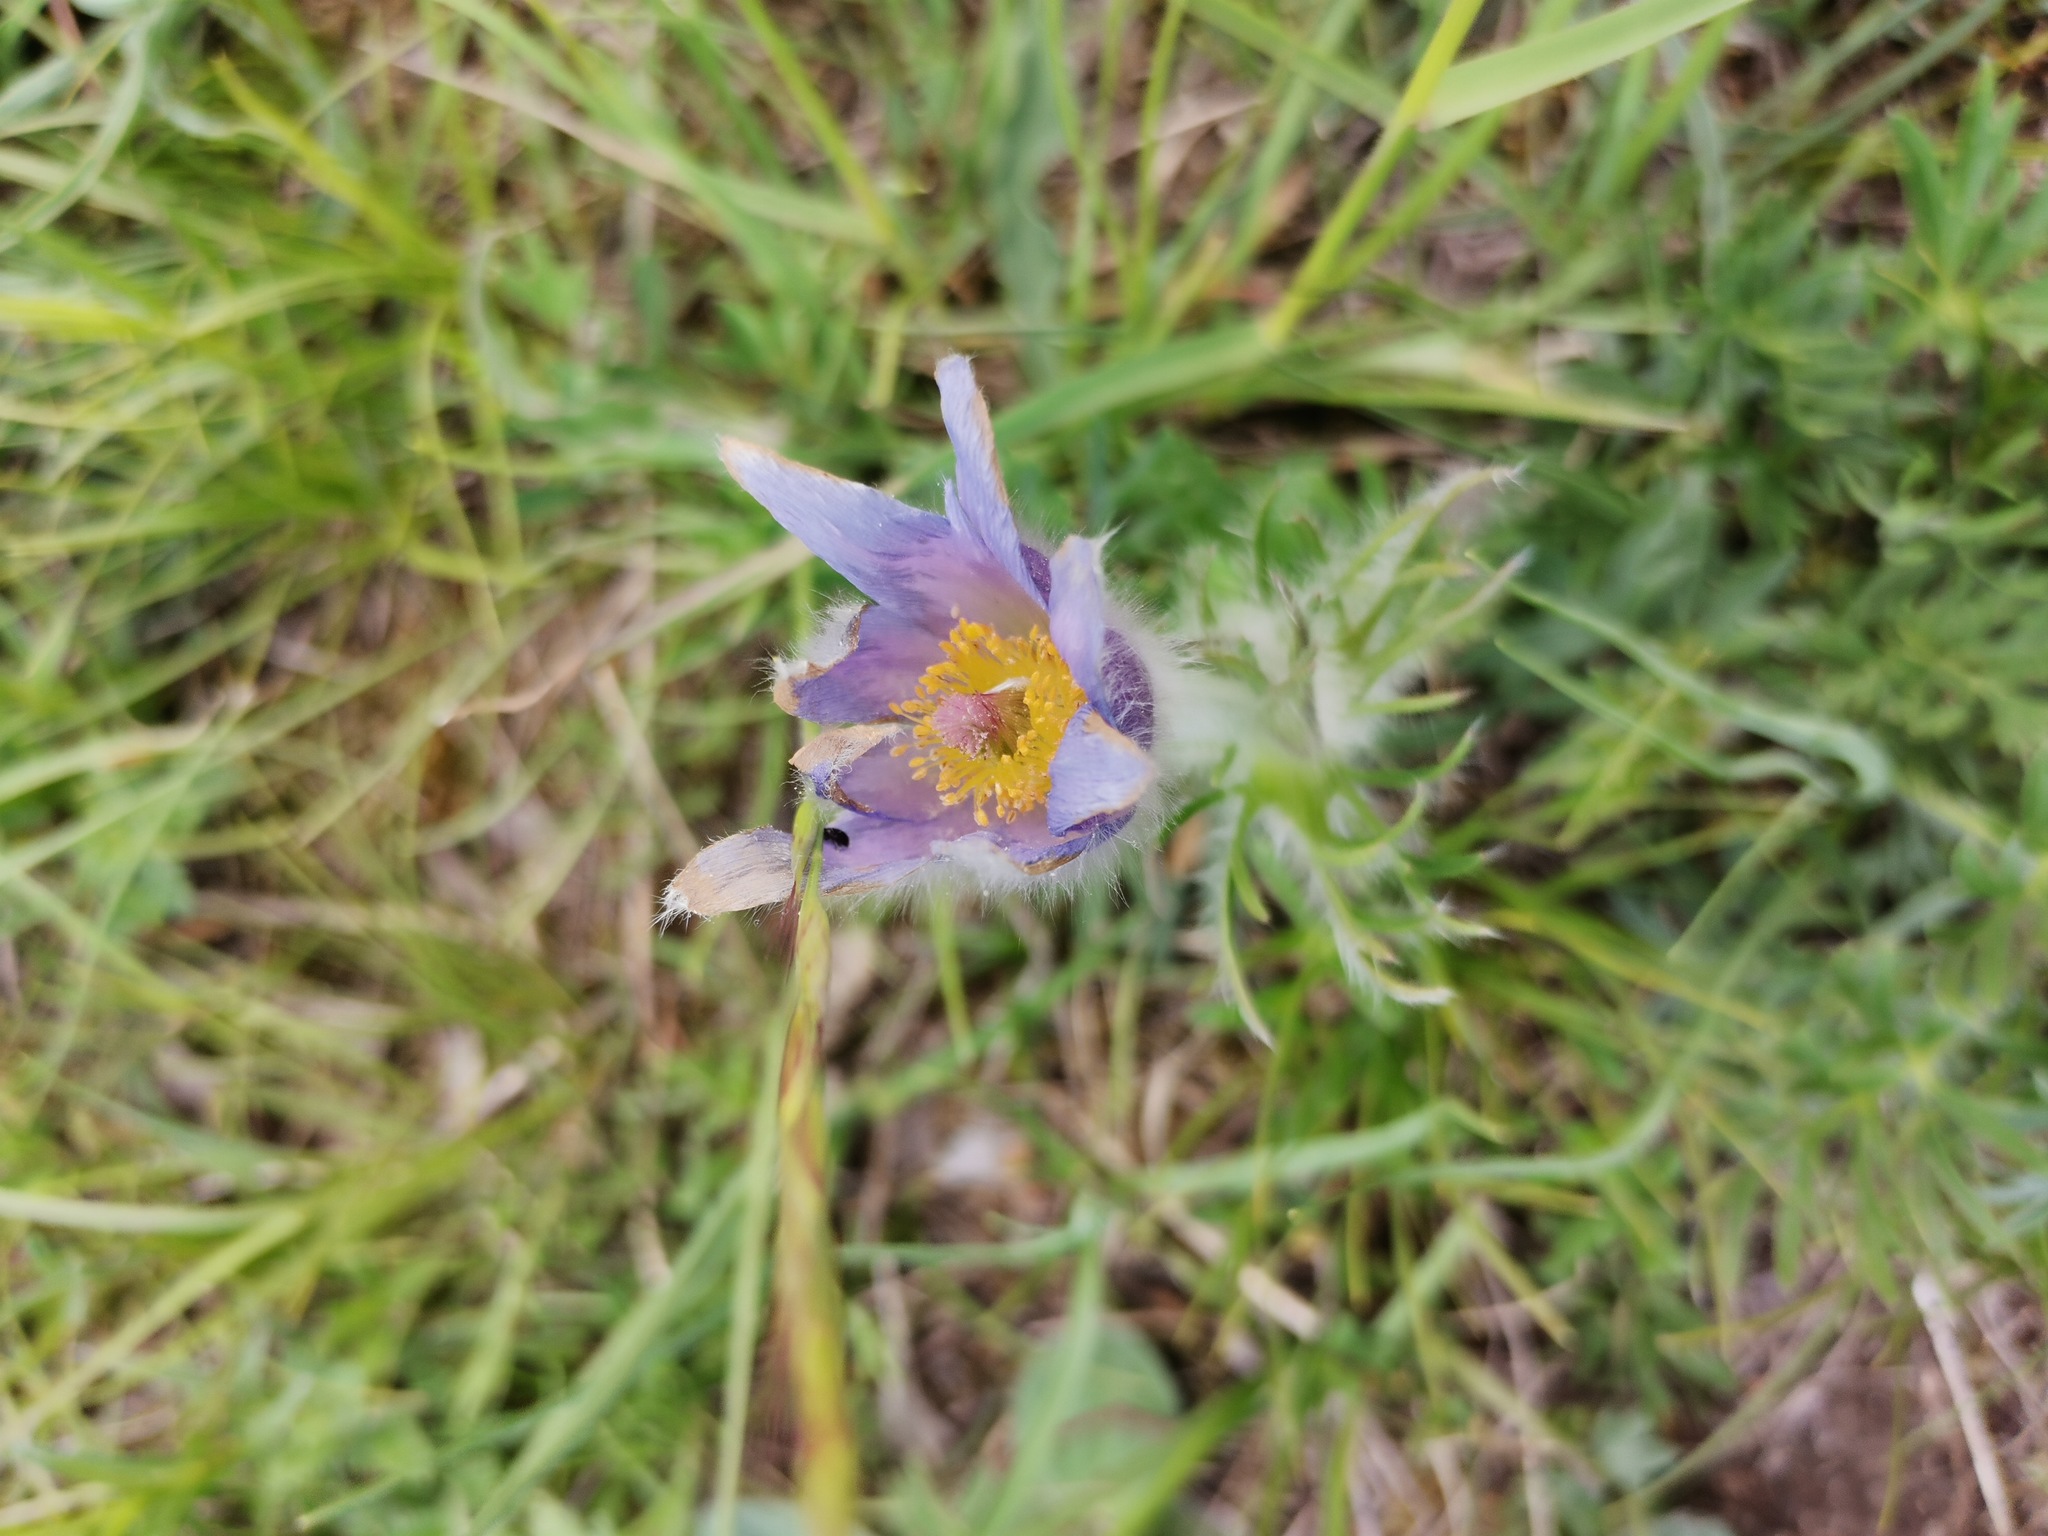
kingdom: Plantae
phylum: Tracheophyta
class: Magnoliopsida
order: Ranunculales
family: Ranunculaceae
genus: Pulsatilla
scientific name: Pulsatilla grandis
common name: Greater pasque flower
